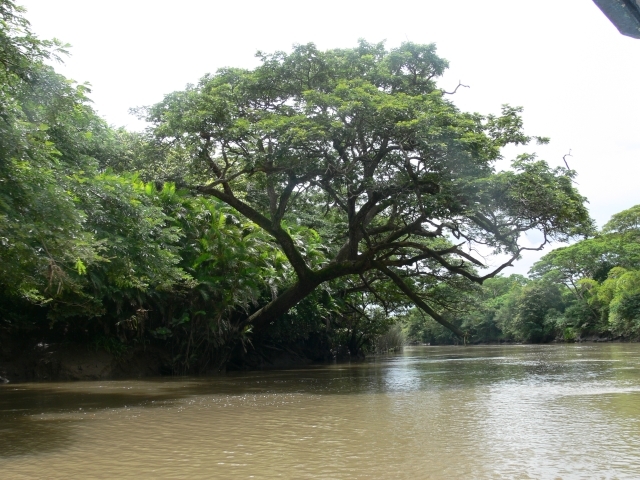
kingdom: Plantae
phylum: Tracheophyta
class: Magnoliopsida
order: Fabales
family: Fabaceae
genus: Samanea
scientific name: Samanea saman
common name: Raintree
